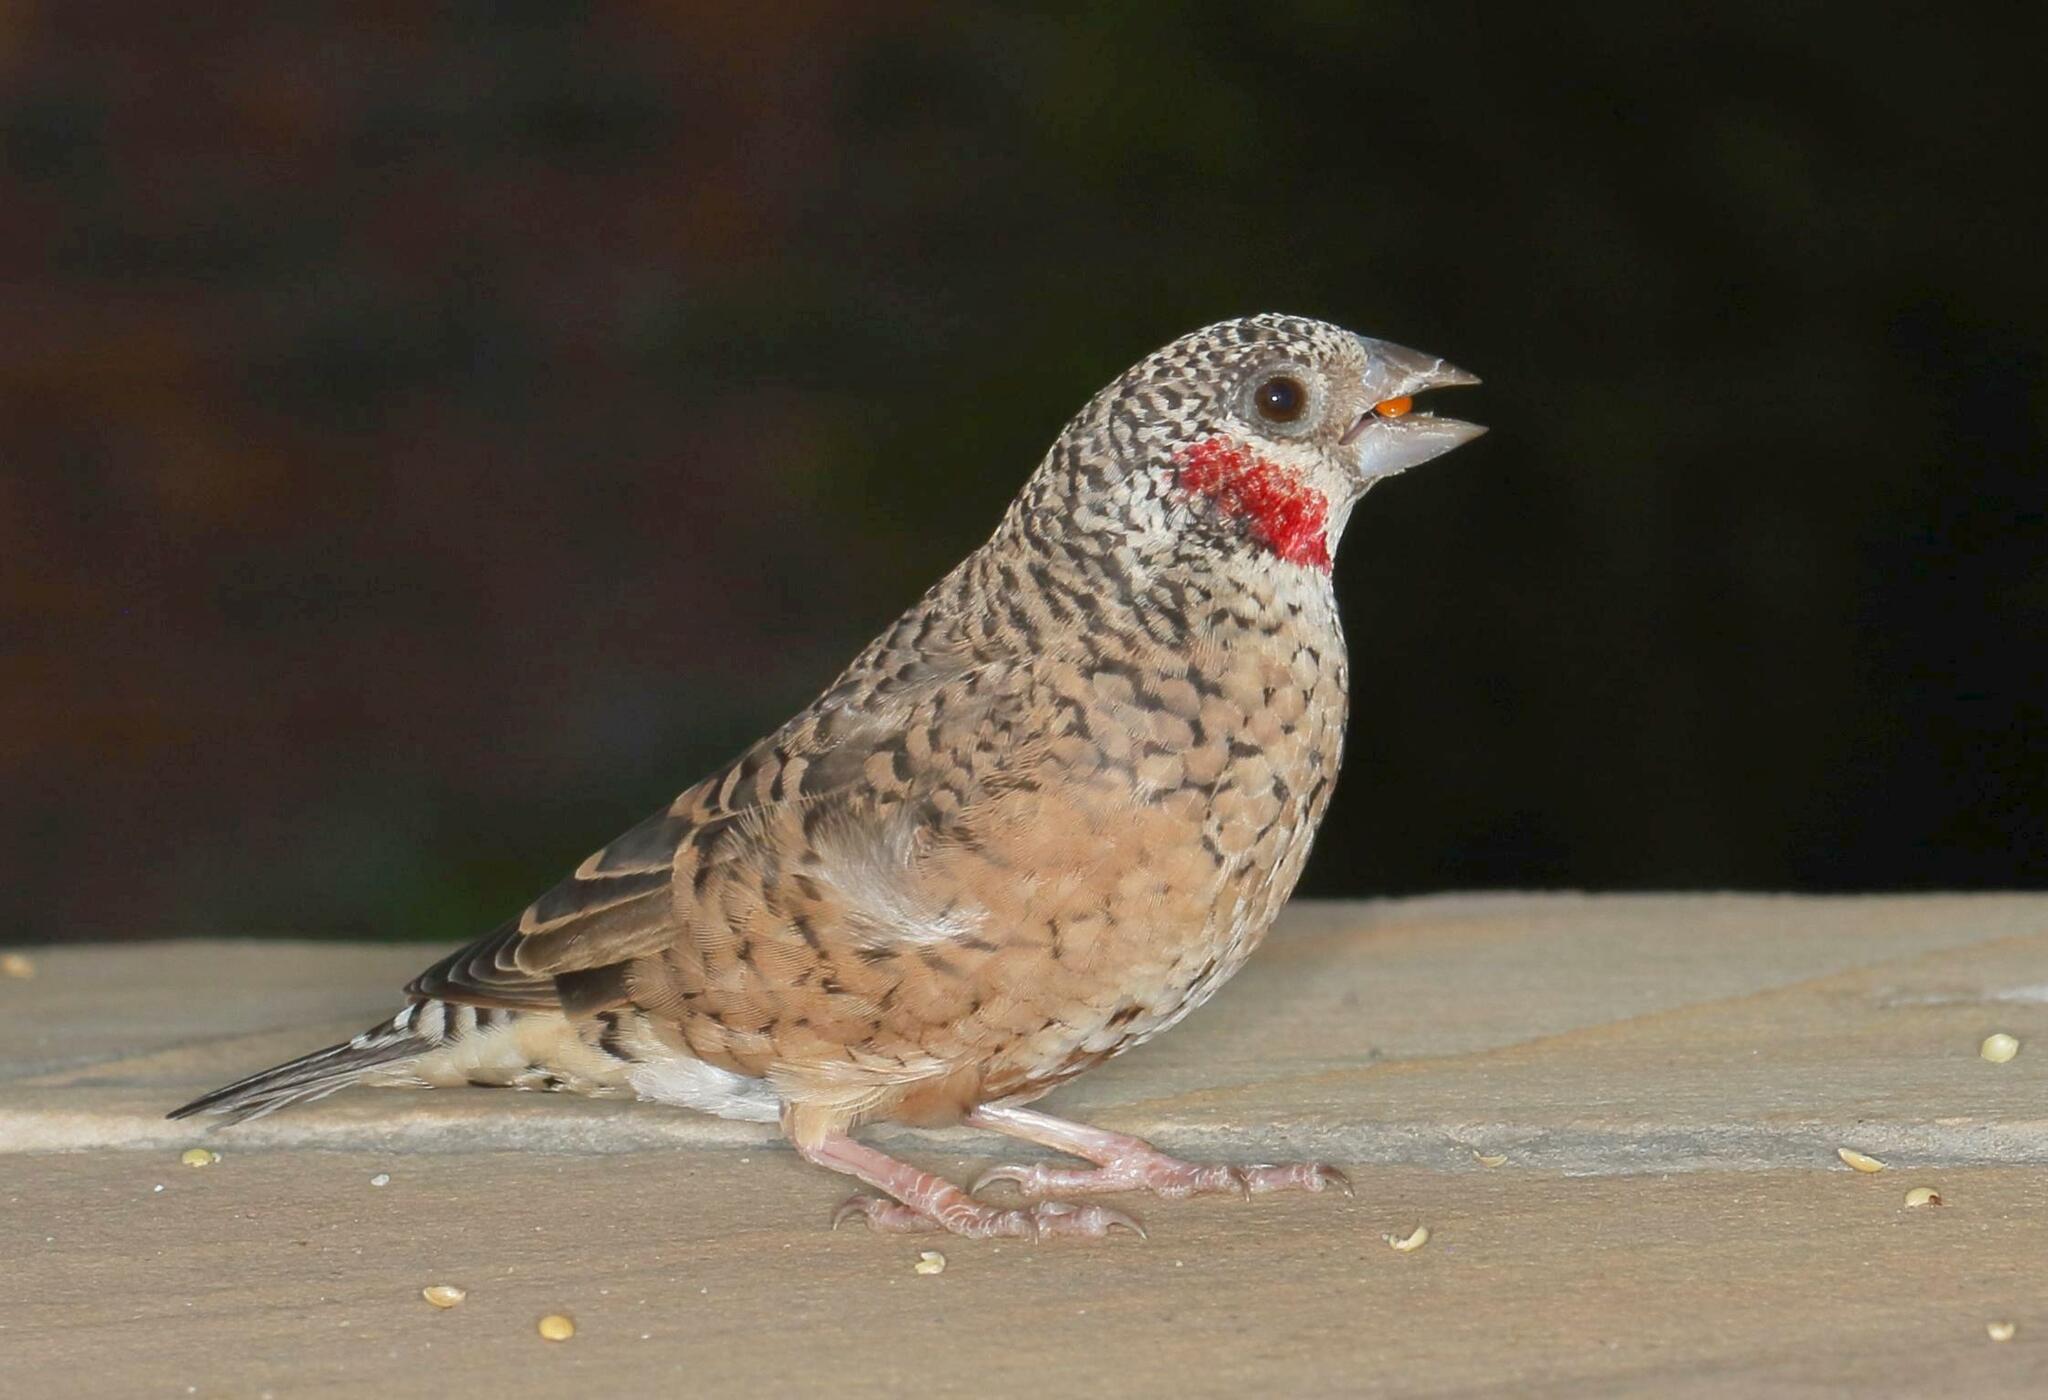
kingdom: Animalia
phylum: Chordata
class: Aves
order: Passeriformes
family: Estrildidae
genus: Amadina
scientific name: Amadina fasciata
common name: Cut-throat finch
